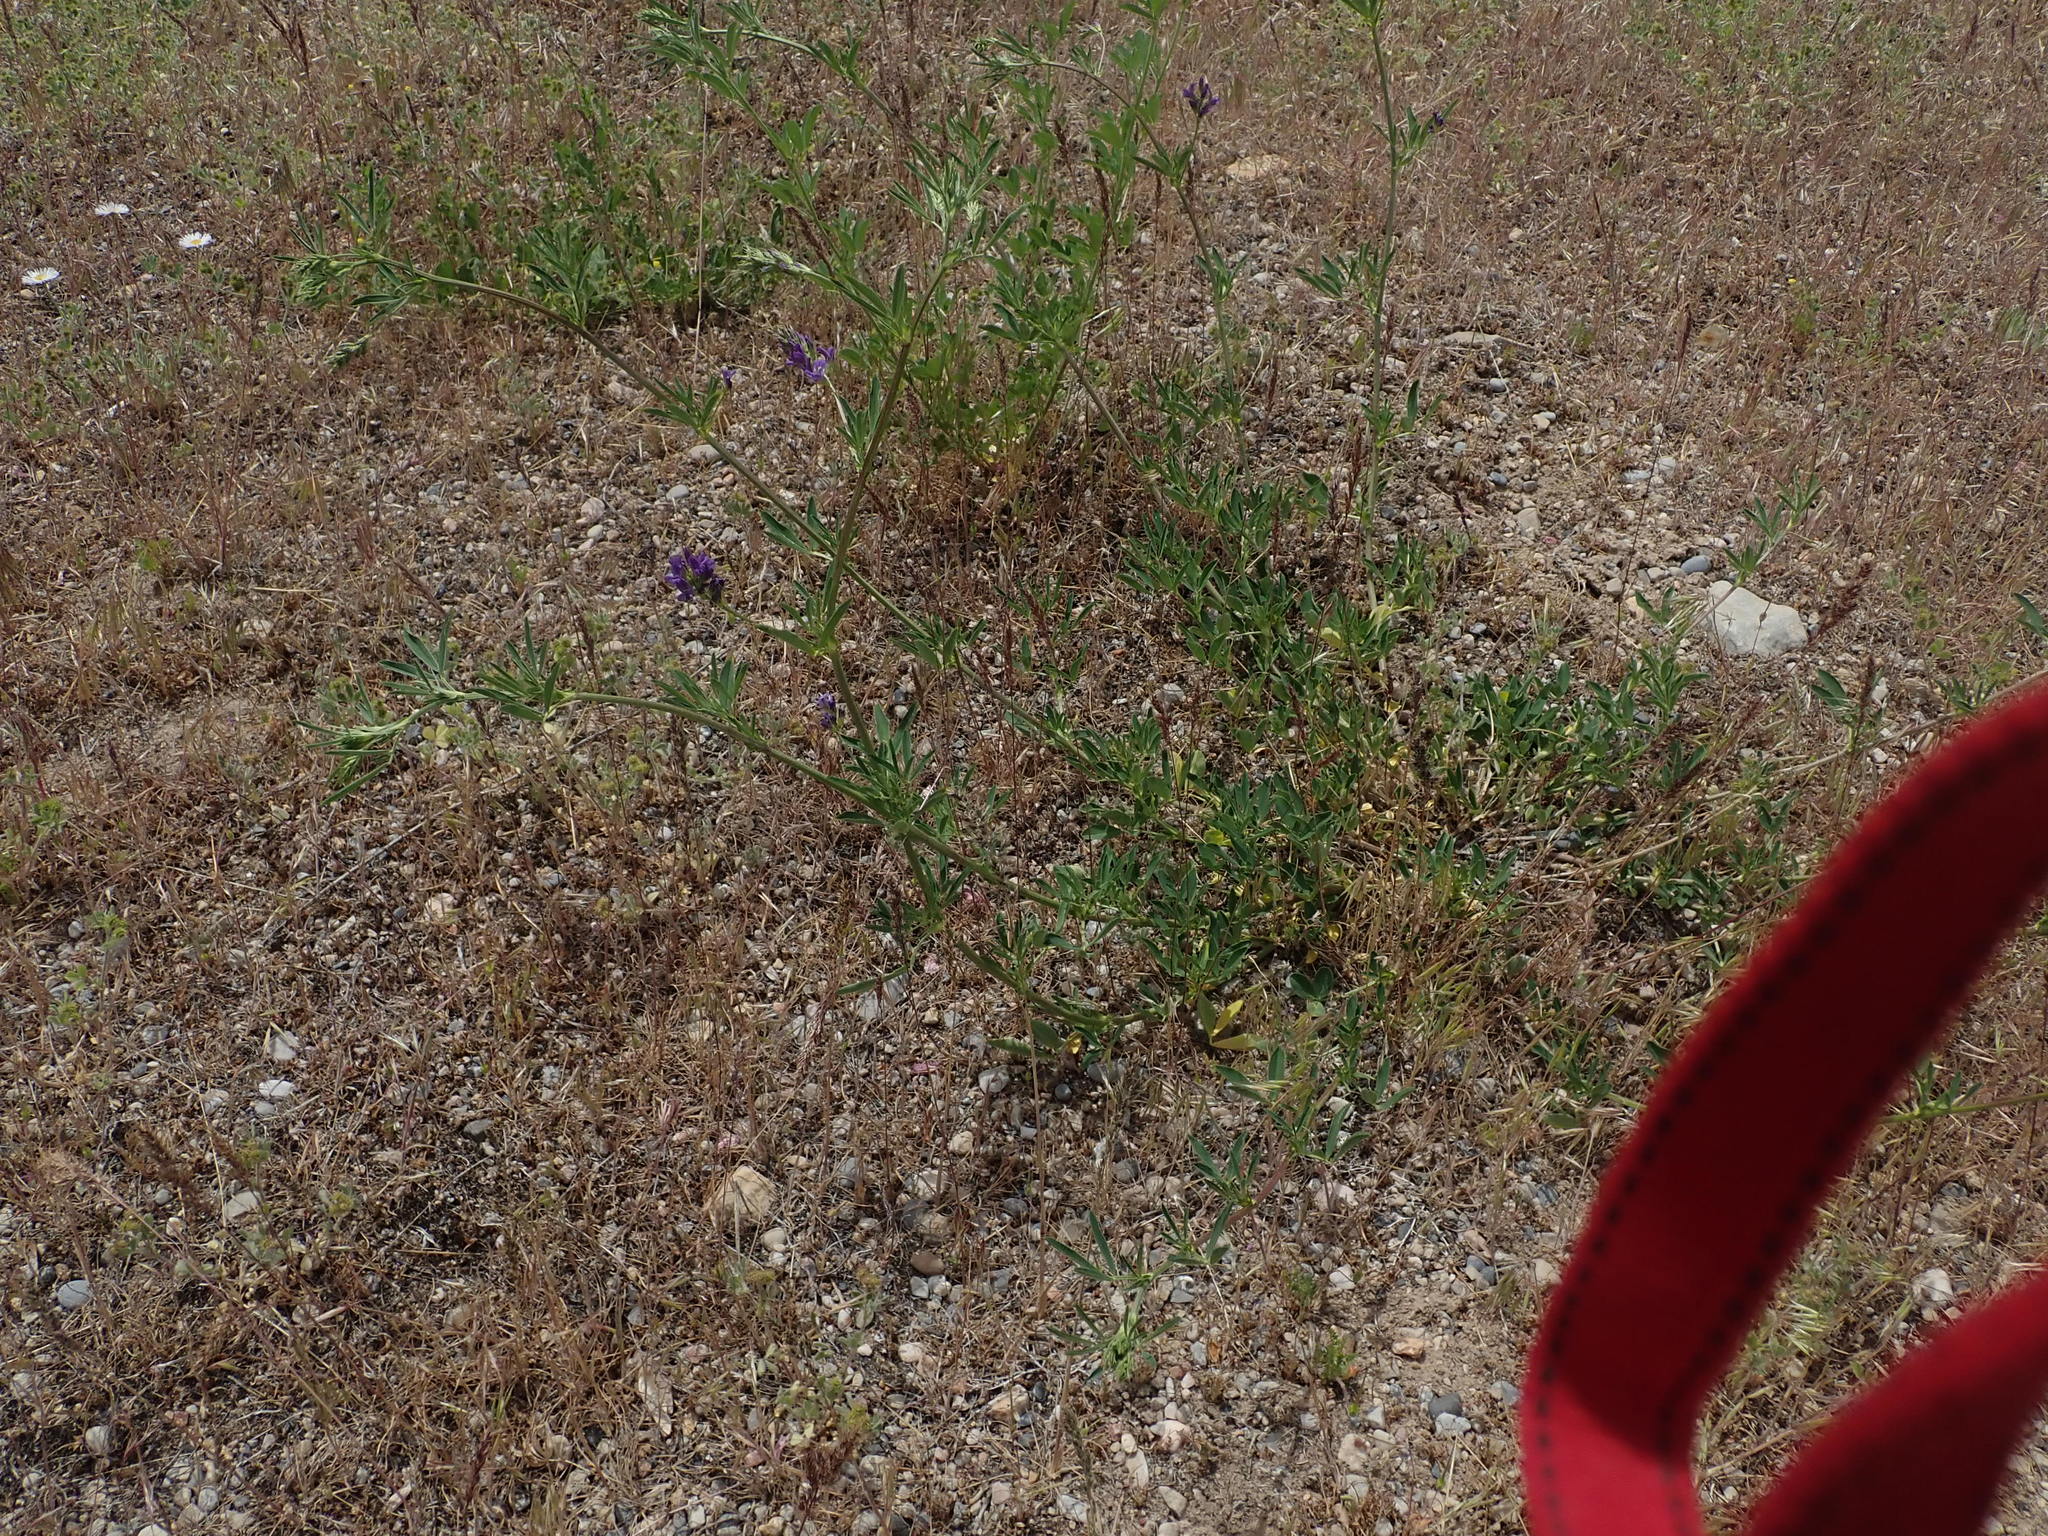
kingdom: Plantae
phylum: Tracheophyta
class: Magnoliopsida
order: Fabales
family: Fabaceae
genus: Medicago
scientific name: Medicago sativa
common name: Alfalfa
